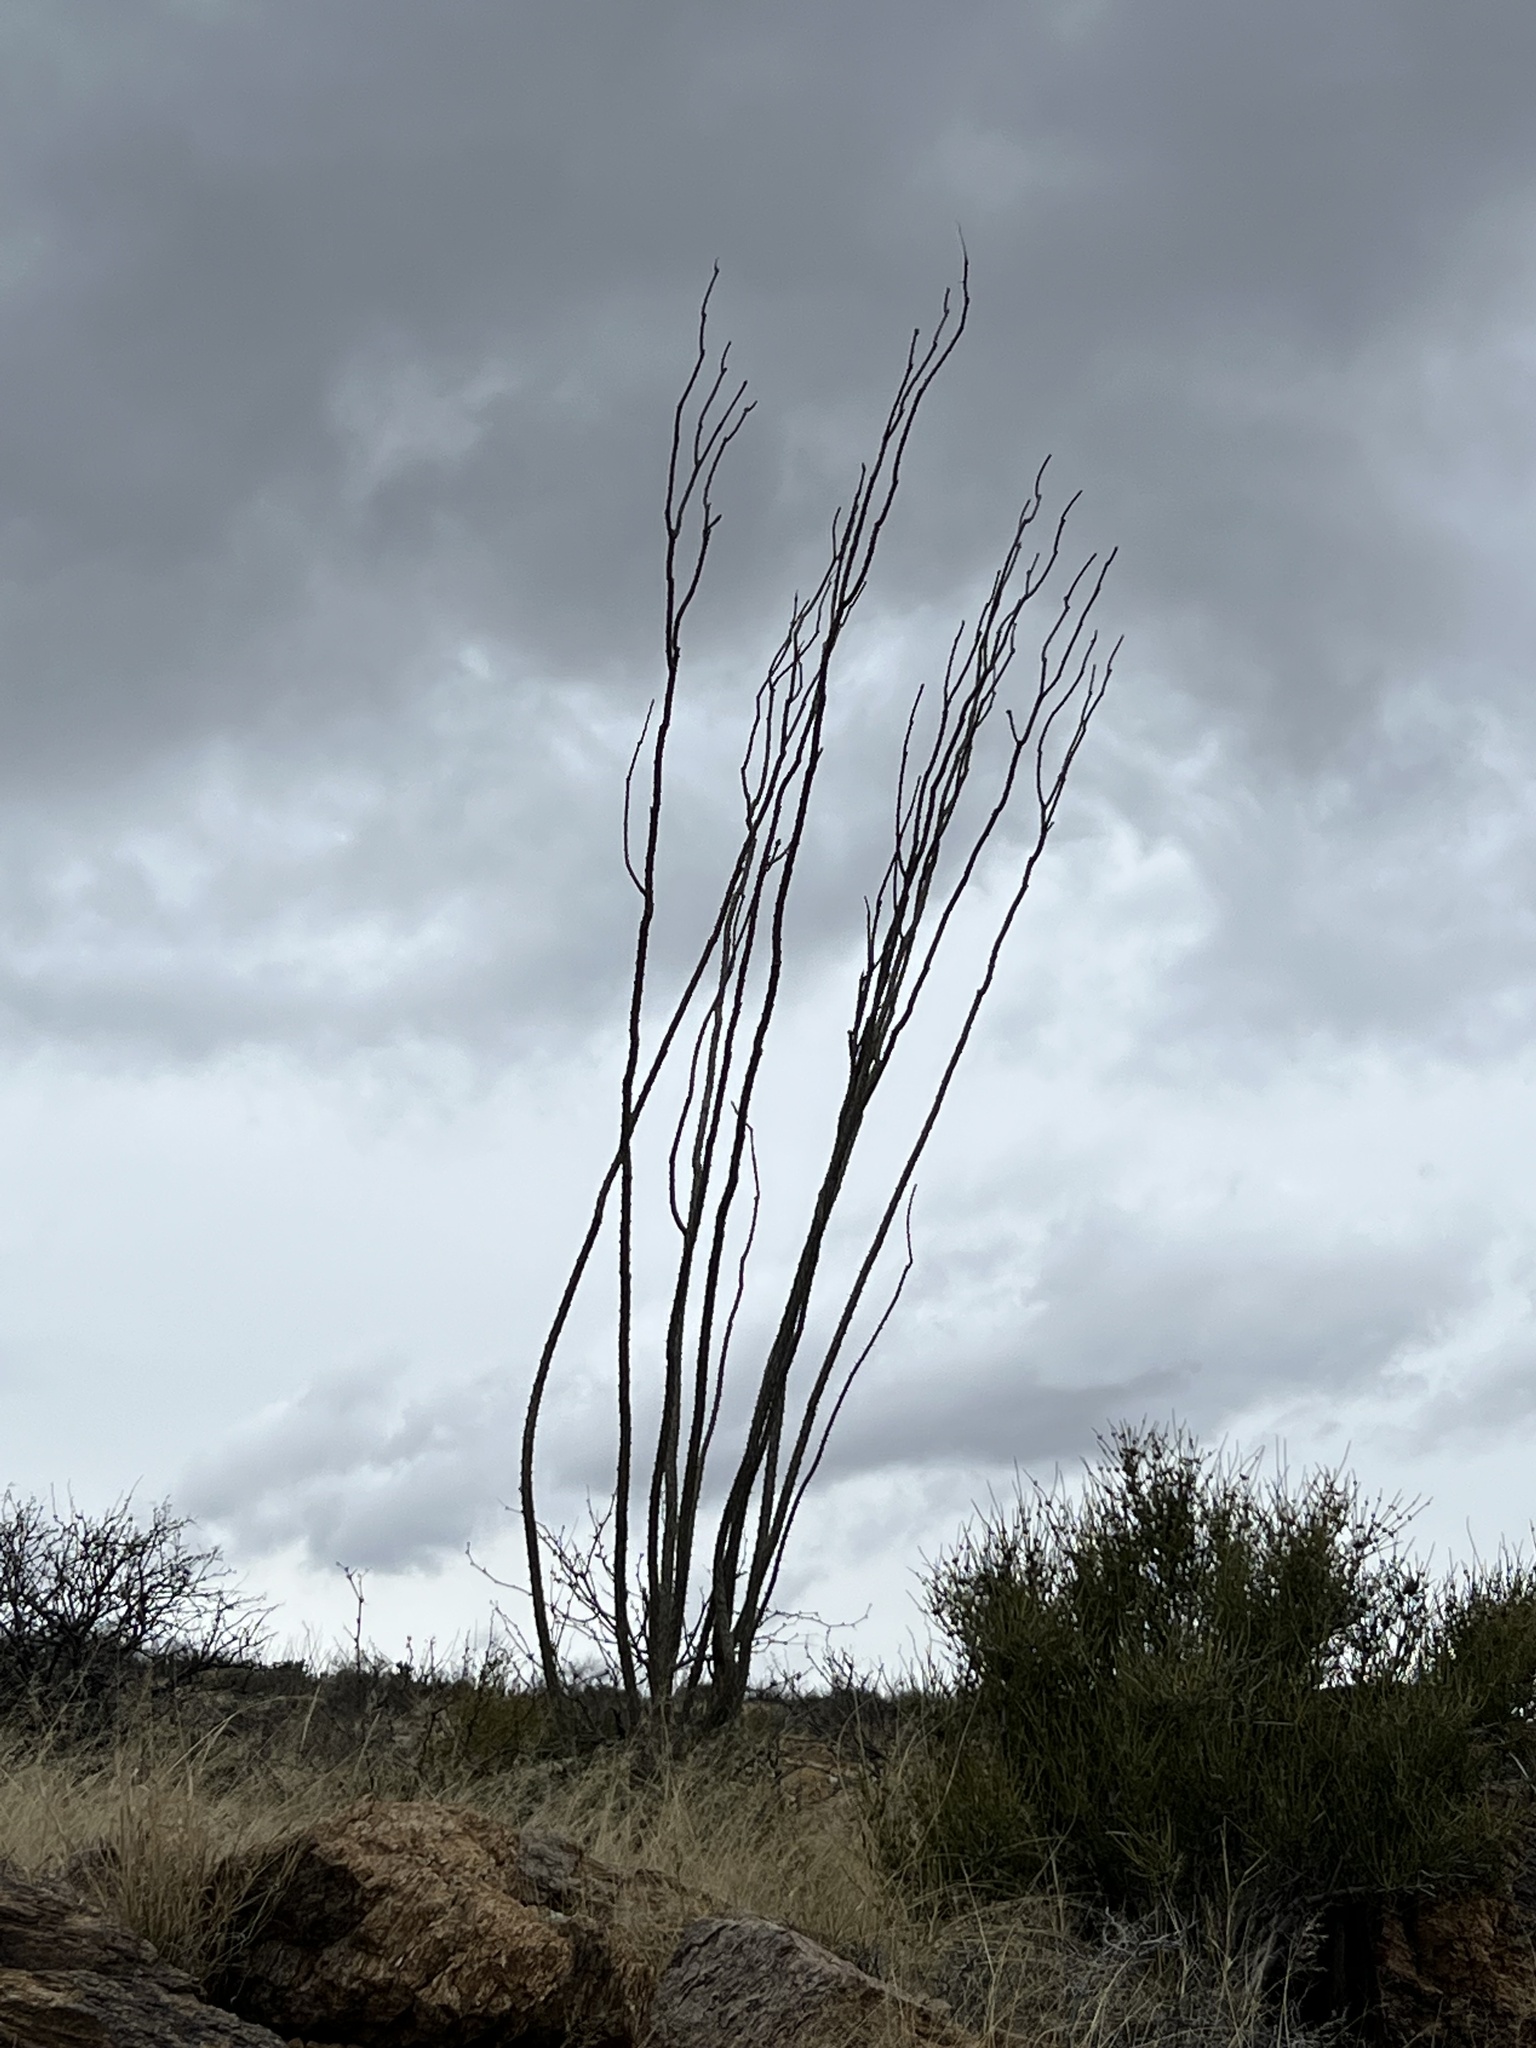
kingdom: Plantae
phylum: Tracheophyta
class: Magnoliopsida
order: Ericales
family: Fouquieriaceae
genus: Fouquieria
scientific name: Fouquieria splendens
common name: Vine-cactus
